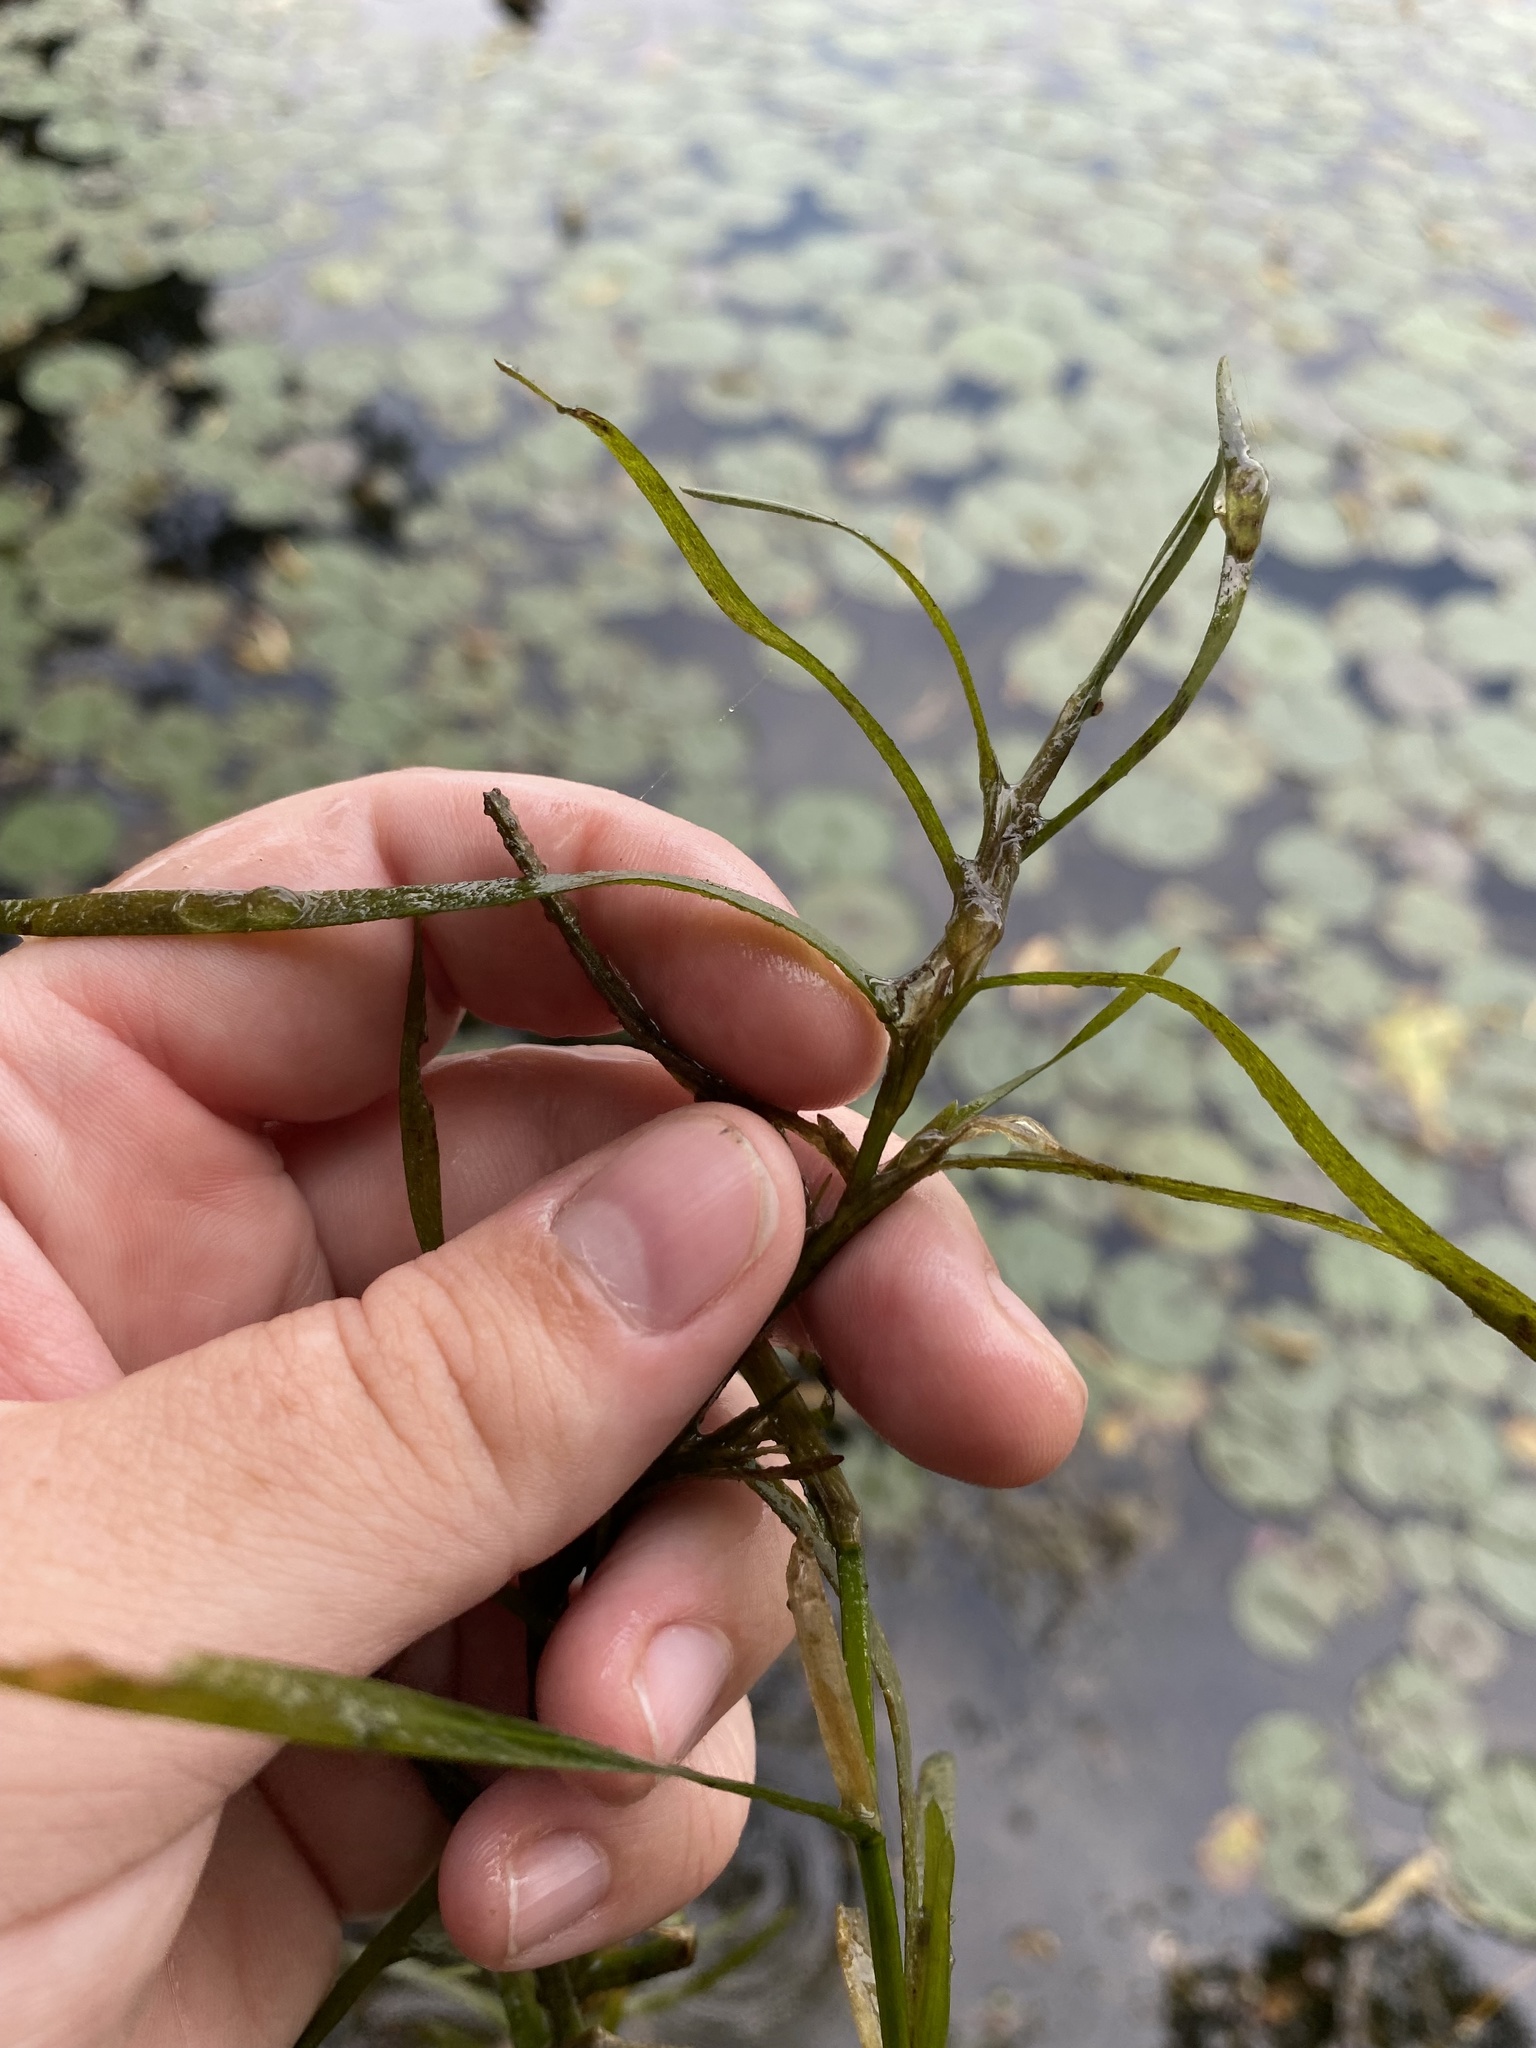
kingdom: Plantae
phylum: Tracheophyta
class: Liliopsida
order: Commelinales
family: Pontederiaceae
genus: Heteranthera
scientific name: Heteranthera dubia
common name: Grass-leaved mud plantain
